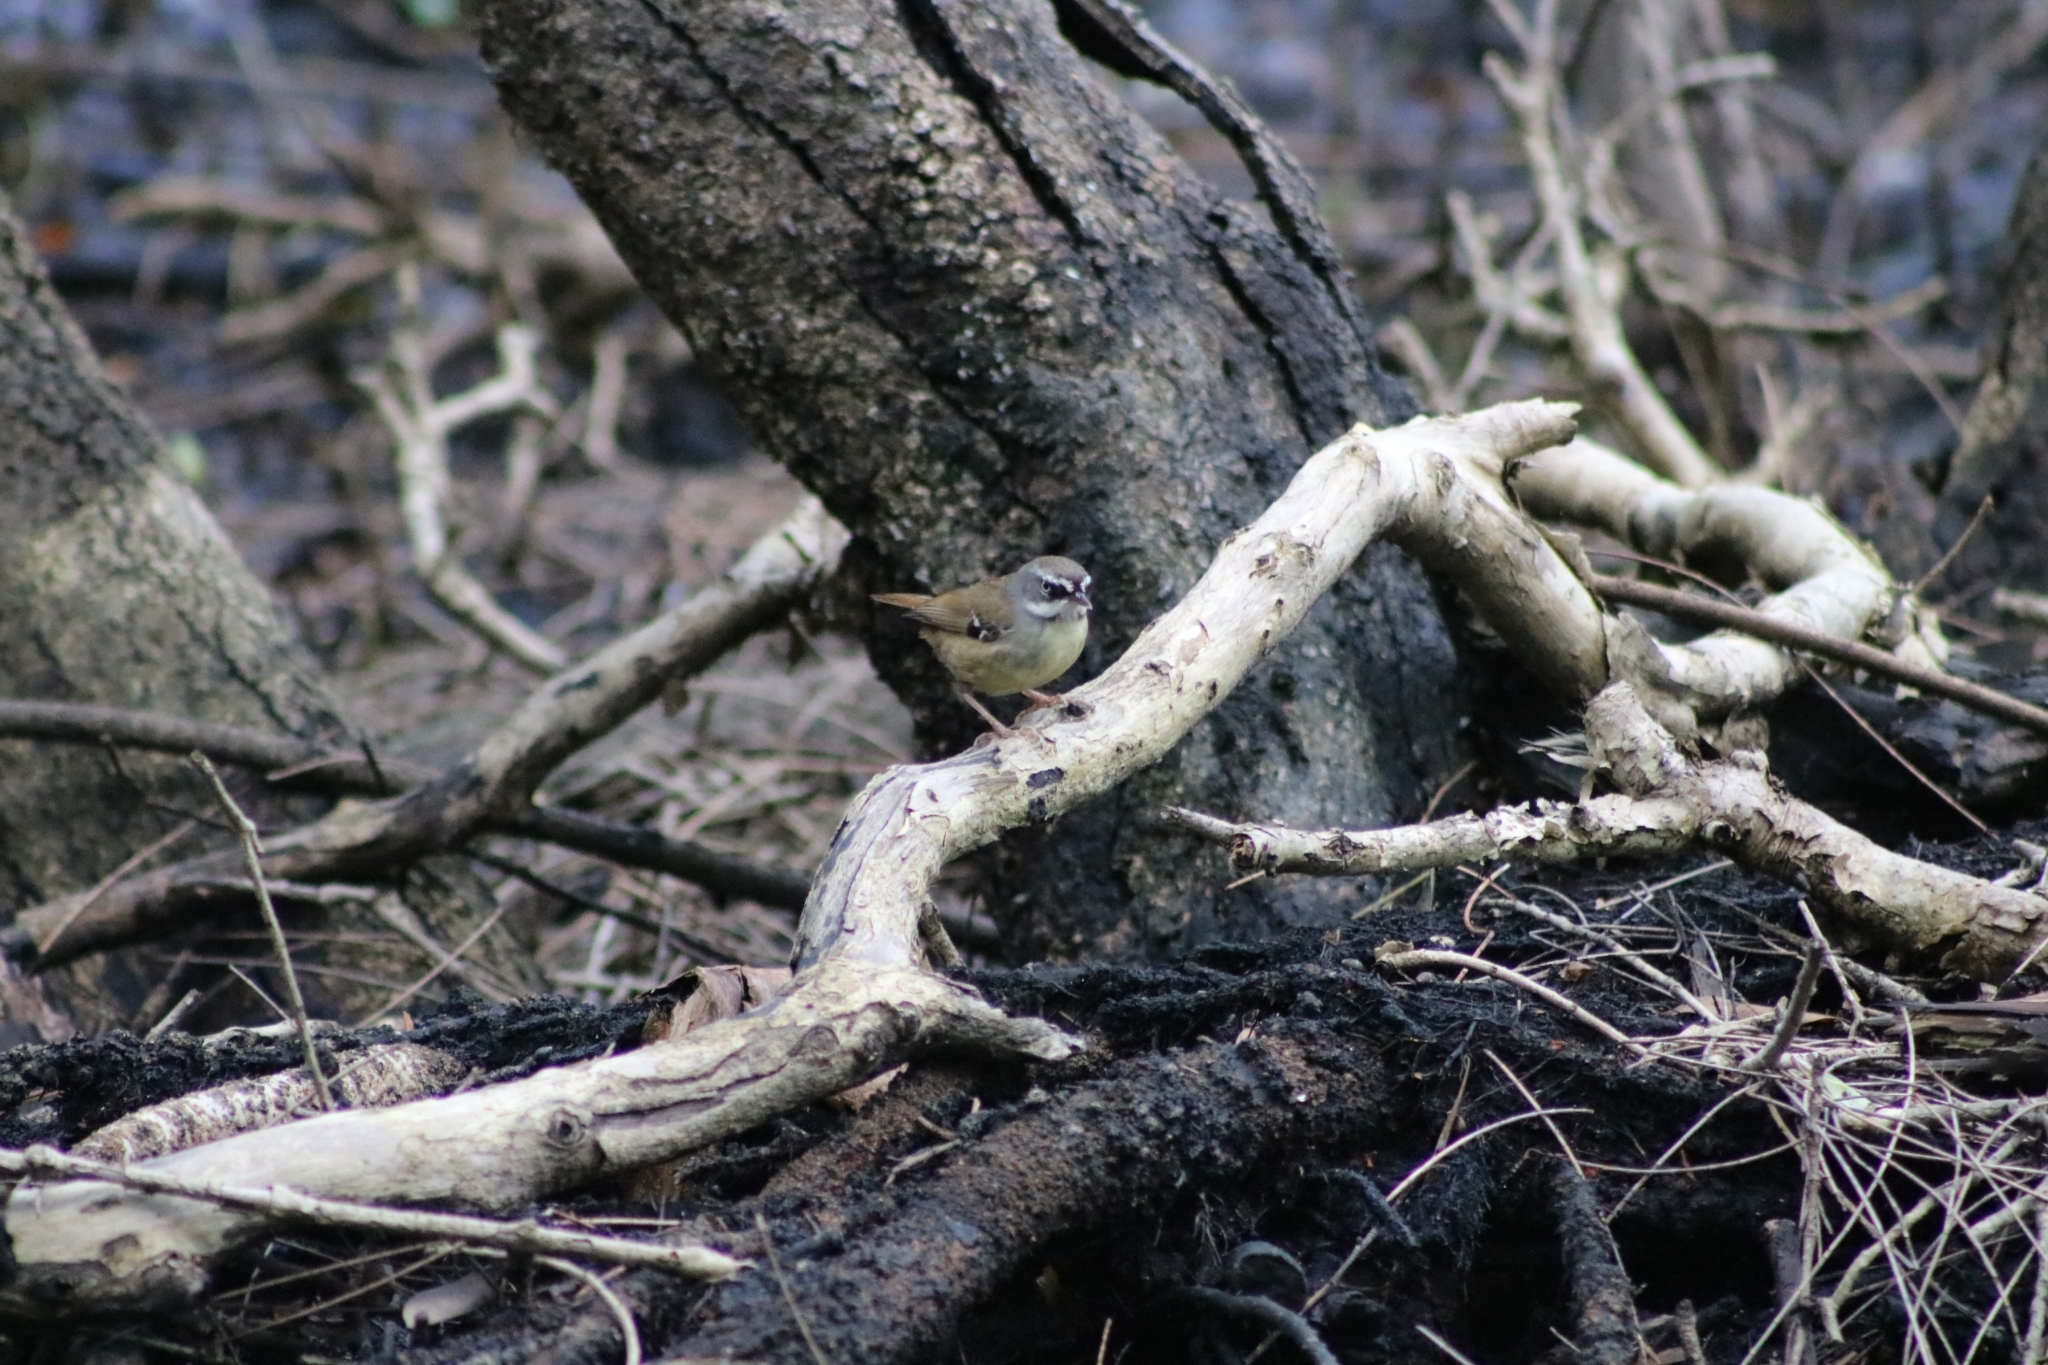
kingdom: Animalia
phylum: Chordata
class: Aves
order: Passeriformes
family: Acanthizidae
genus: Sericornis
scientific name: Sericornis frontalis
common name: White-browed scrubwren
